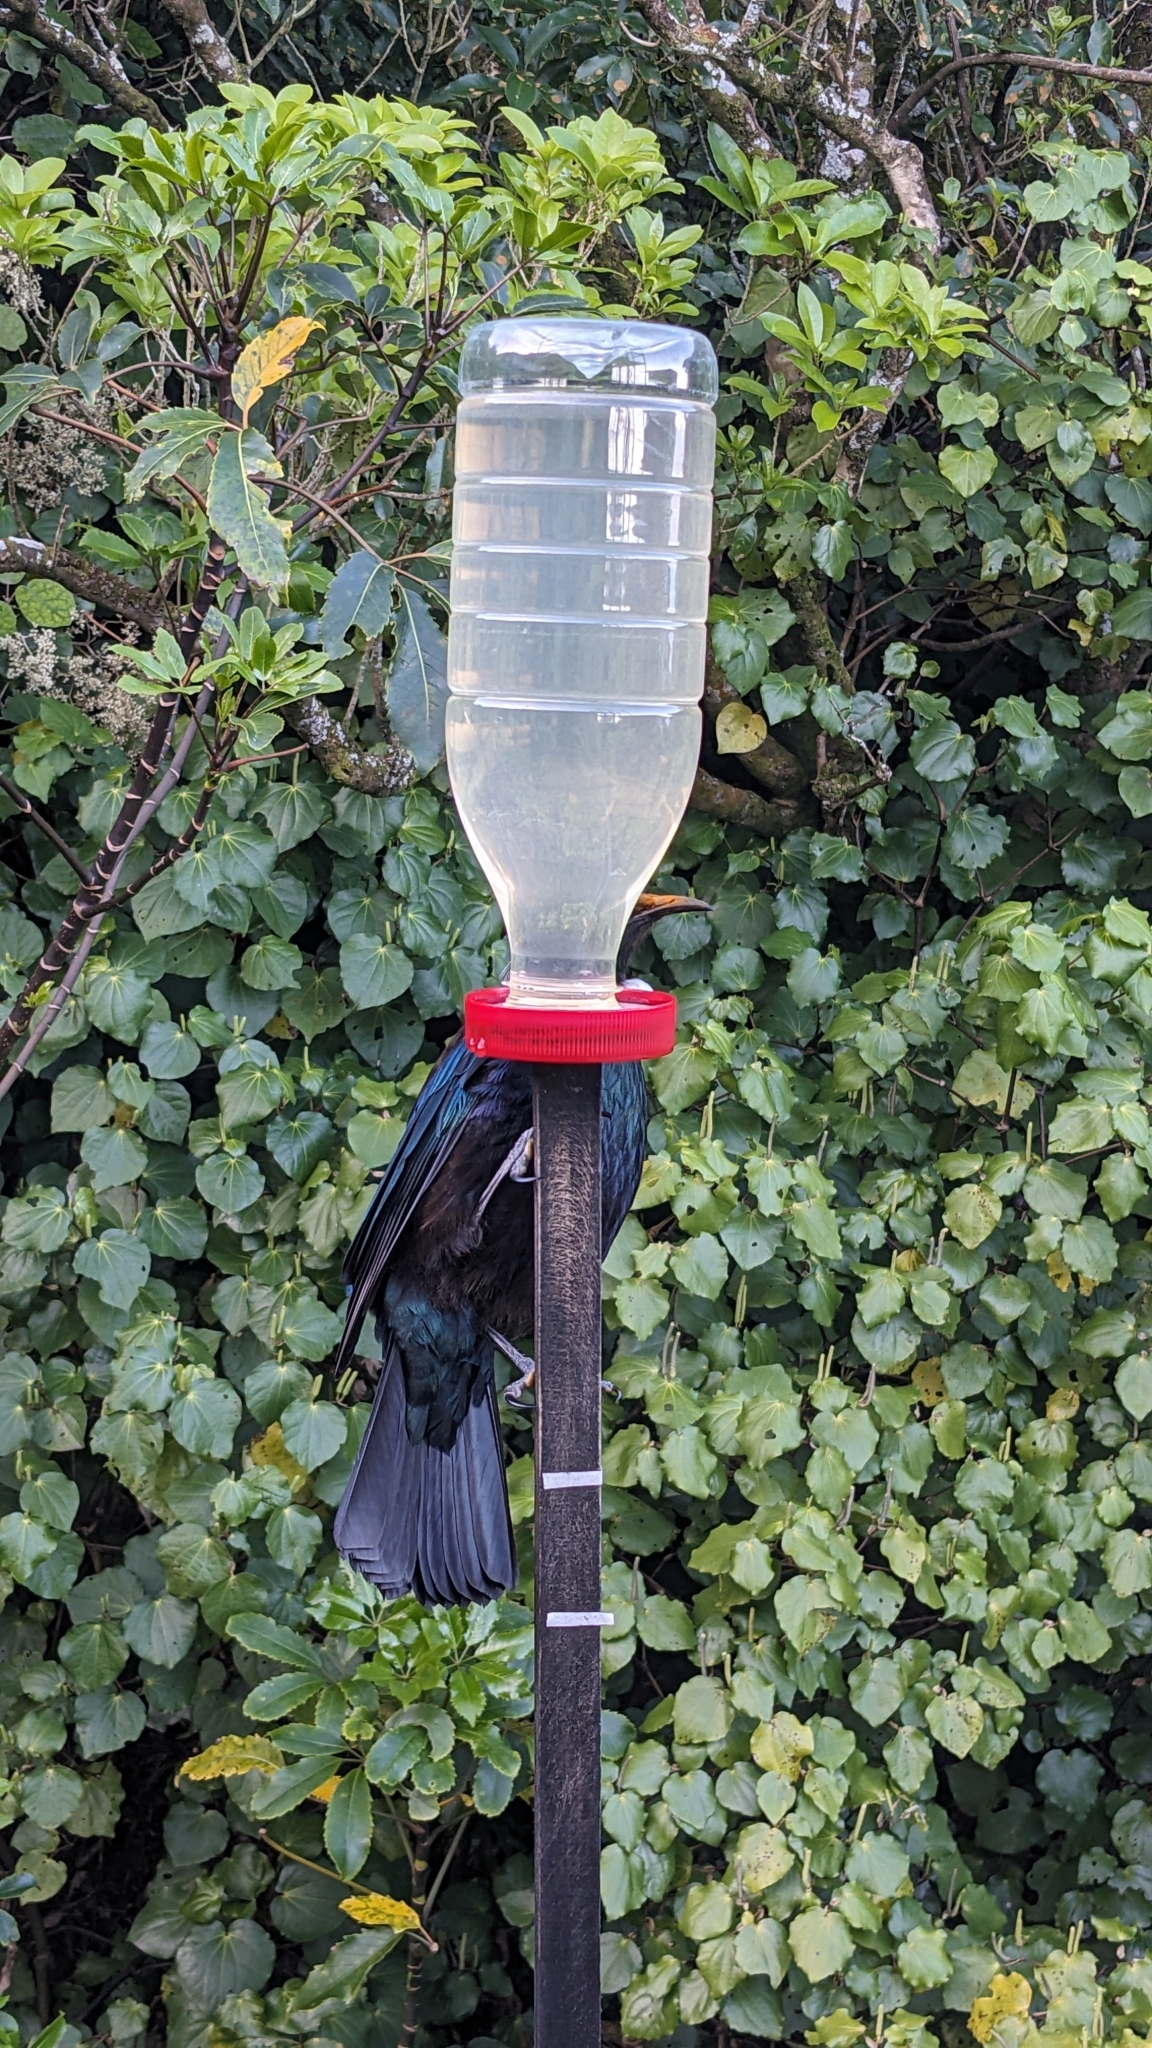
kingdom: Animalia
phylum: Chordata
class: Aves
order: Passeriformes
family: Meliphagidae
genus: Prosthemadera
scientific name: Prosthemadera novaeseelandiae
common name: Tui
